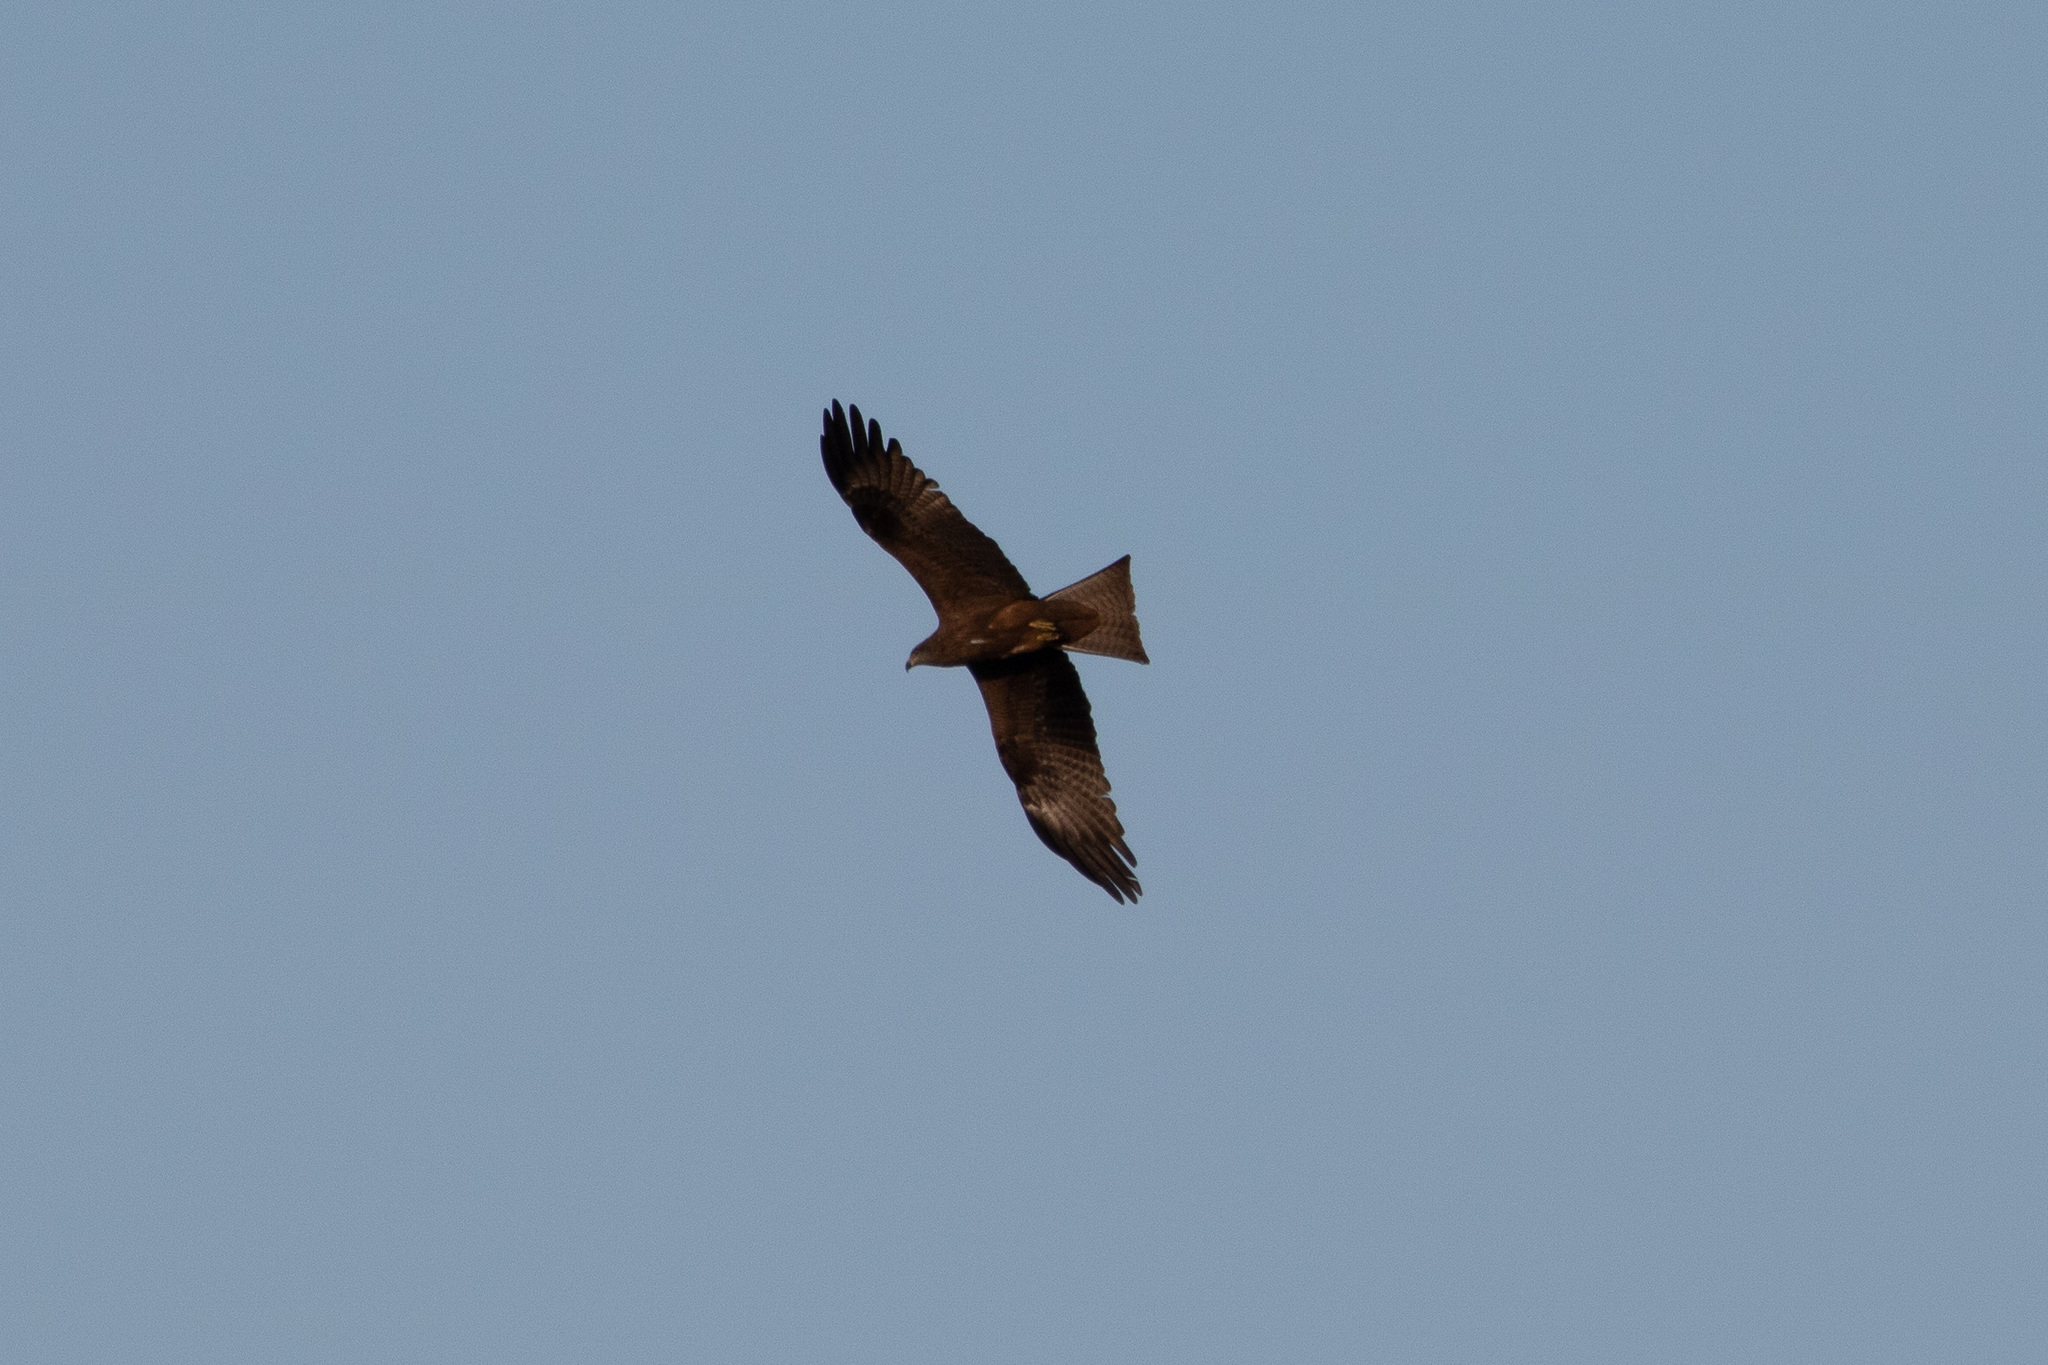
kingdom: Animalia
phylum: Chordata
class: Aves
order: Accipitriformes
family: Accipitridae
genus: Milvus
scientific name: Milvus migrans
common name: Black kite
